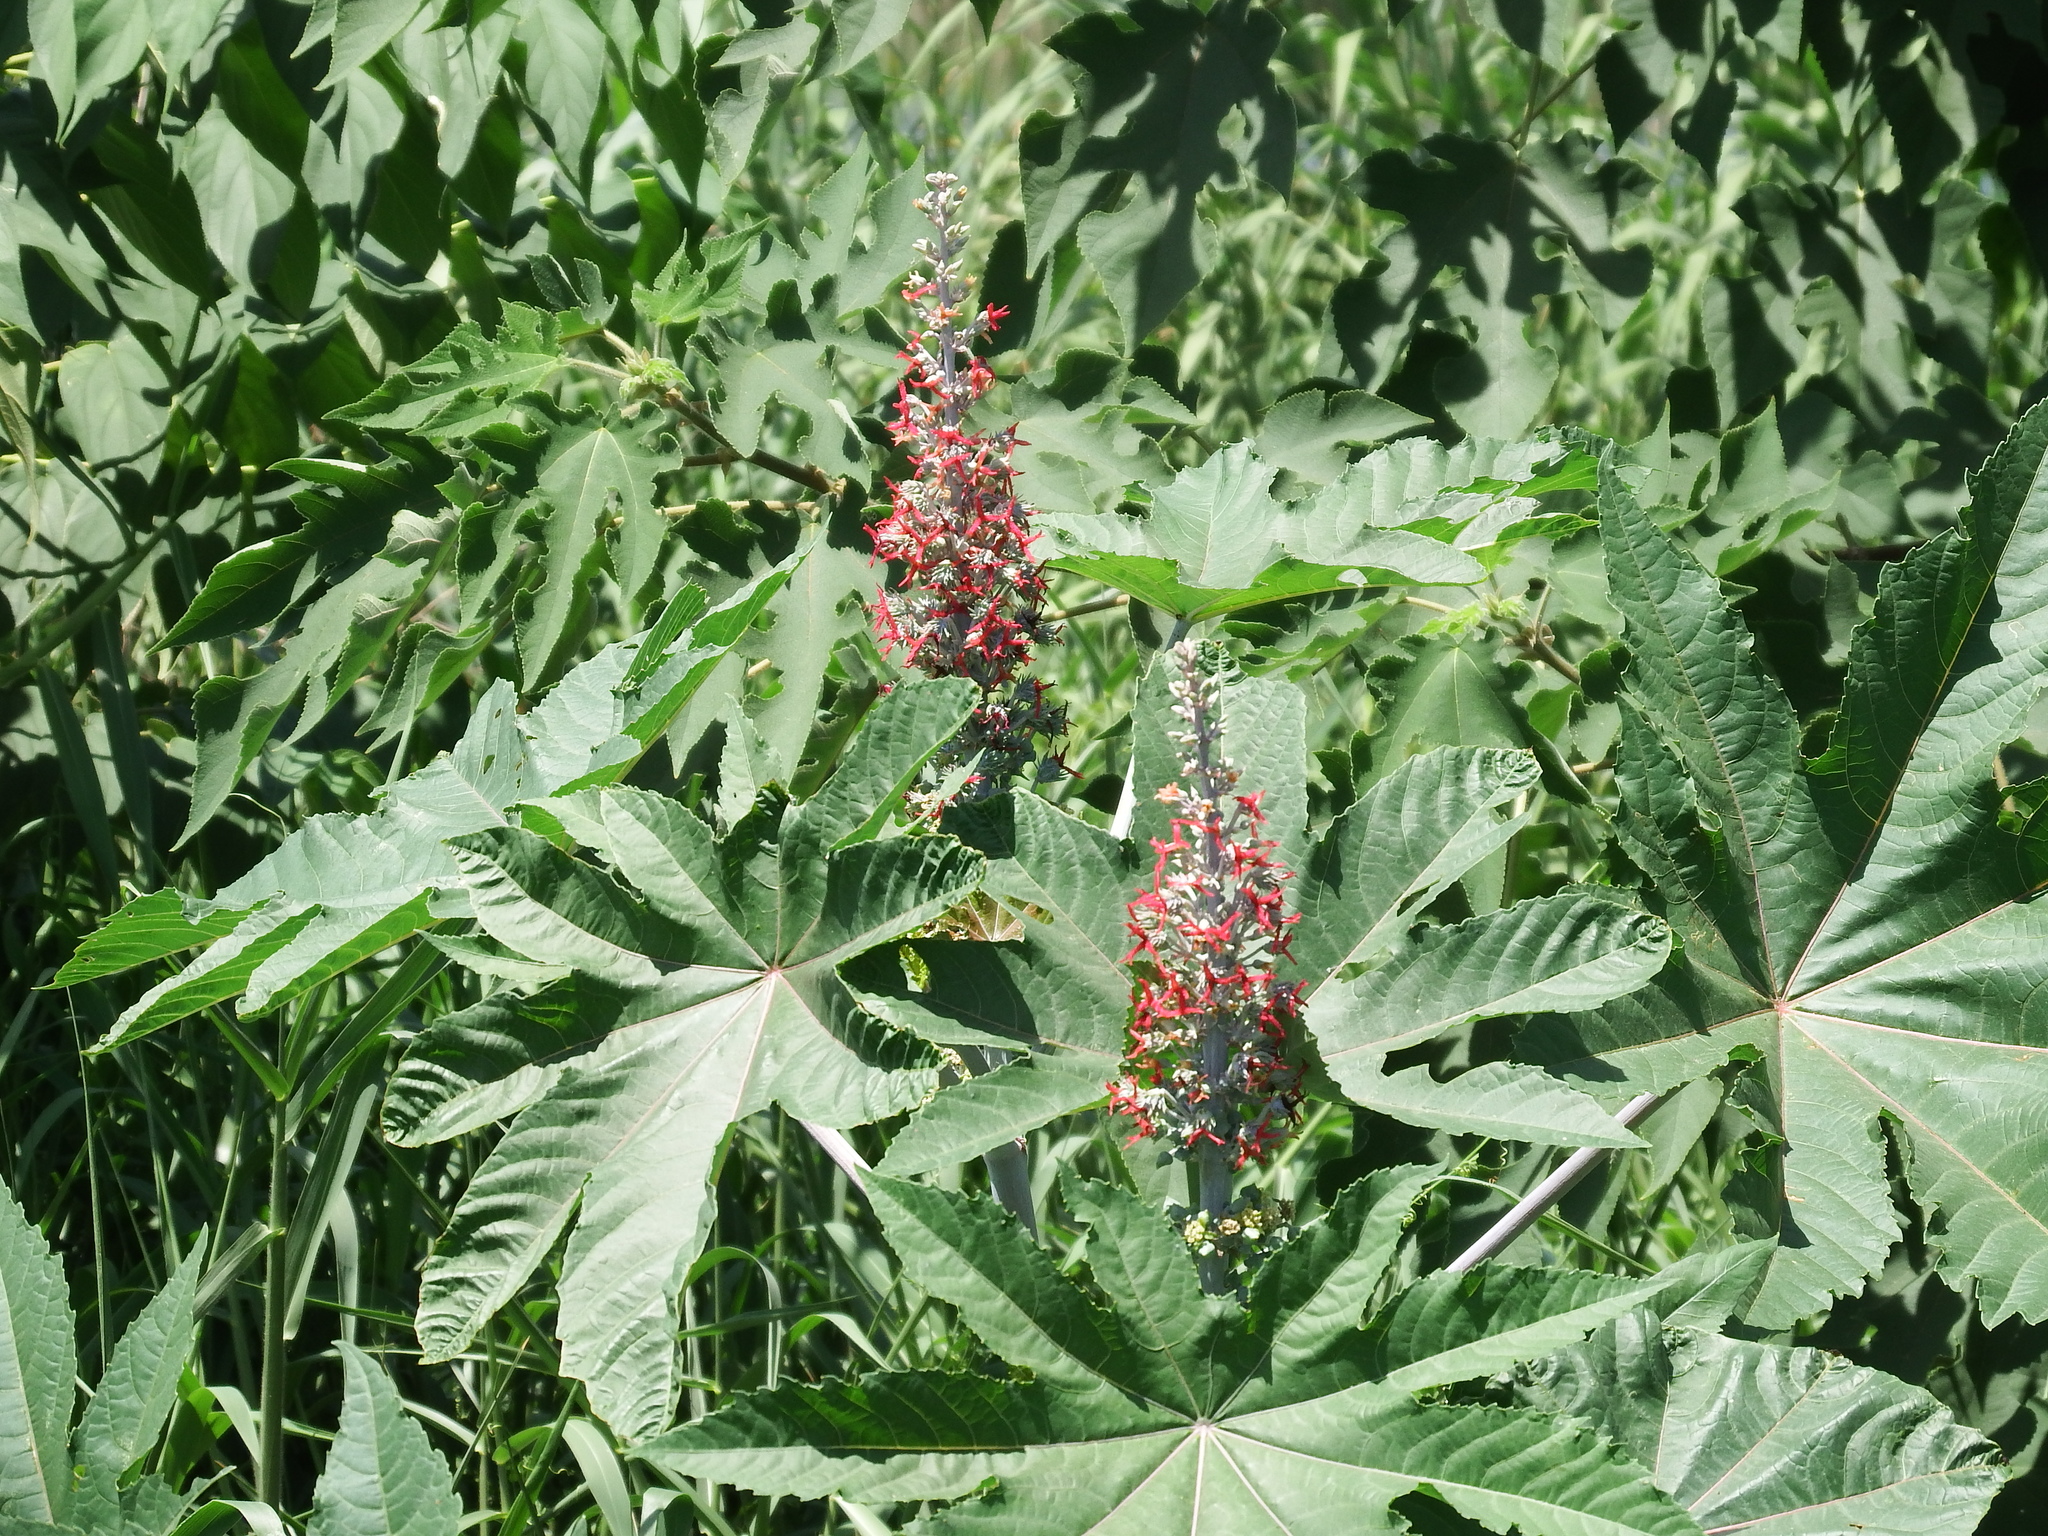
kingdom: Plantae
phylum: Tracheophyta
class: Magnoliopsida
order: Malpighiales
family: Euphorbiaceae
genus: Ricinus
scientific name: Ricinus communis
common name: Castor-oil-plant
